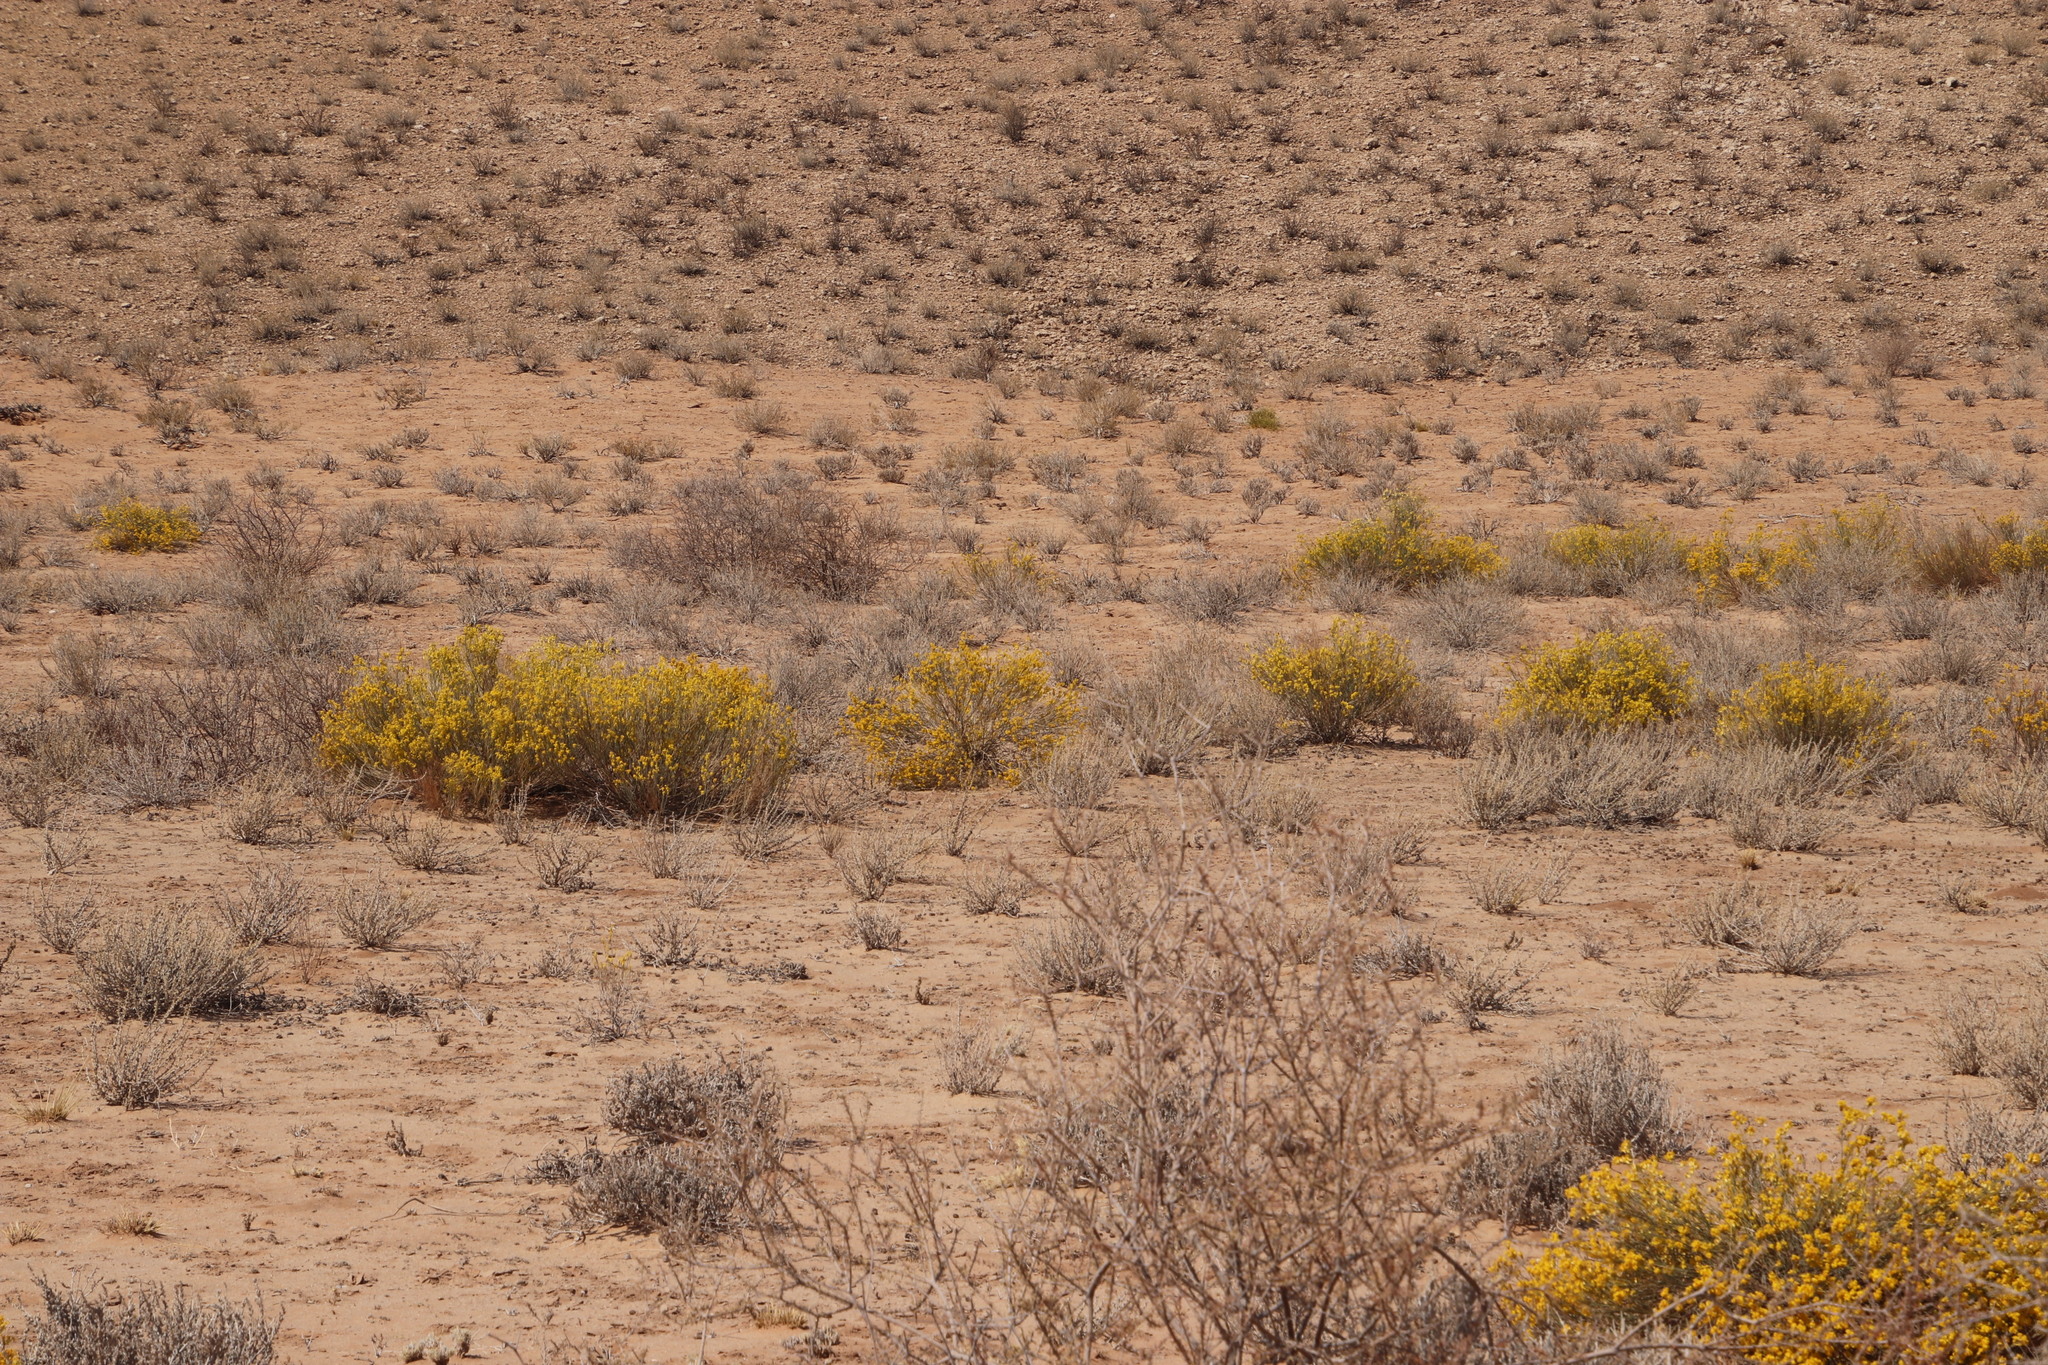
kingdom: Plantae
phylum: Tracheophyta
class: Magnoliopsida
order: Malvales
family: Thymelaeaceae
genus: Gnidia
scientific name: Gnidia polycephala
